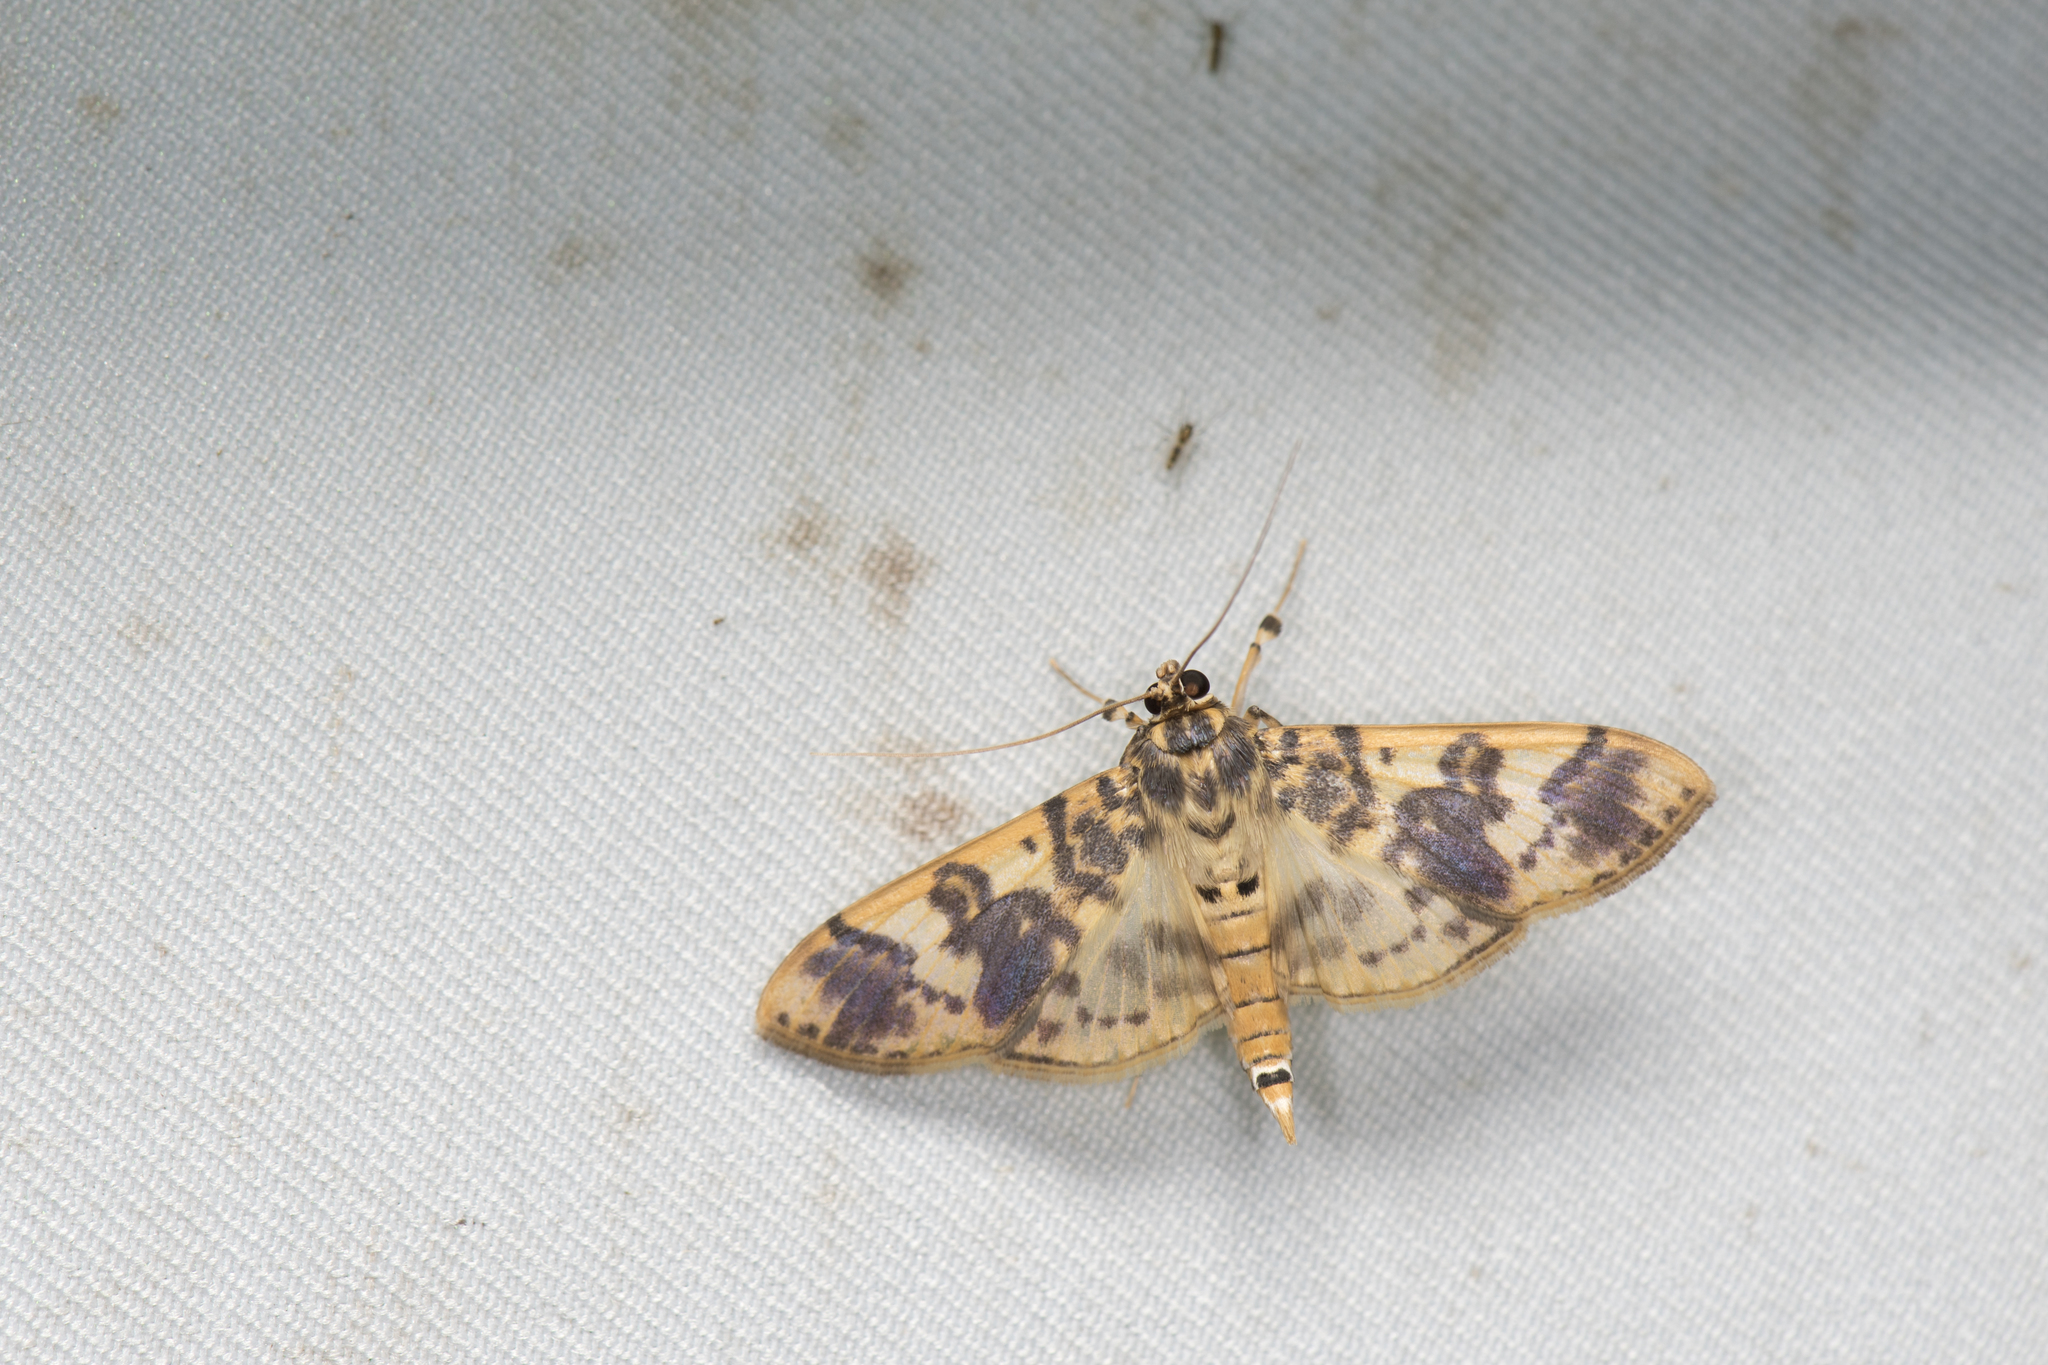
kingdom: Animalia
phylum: Arthropoda
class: Insecta
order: Lepidoptera
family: Crambidae
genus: Patania
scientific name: Patania iopasalis
